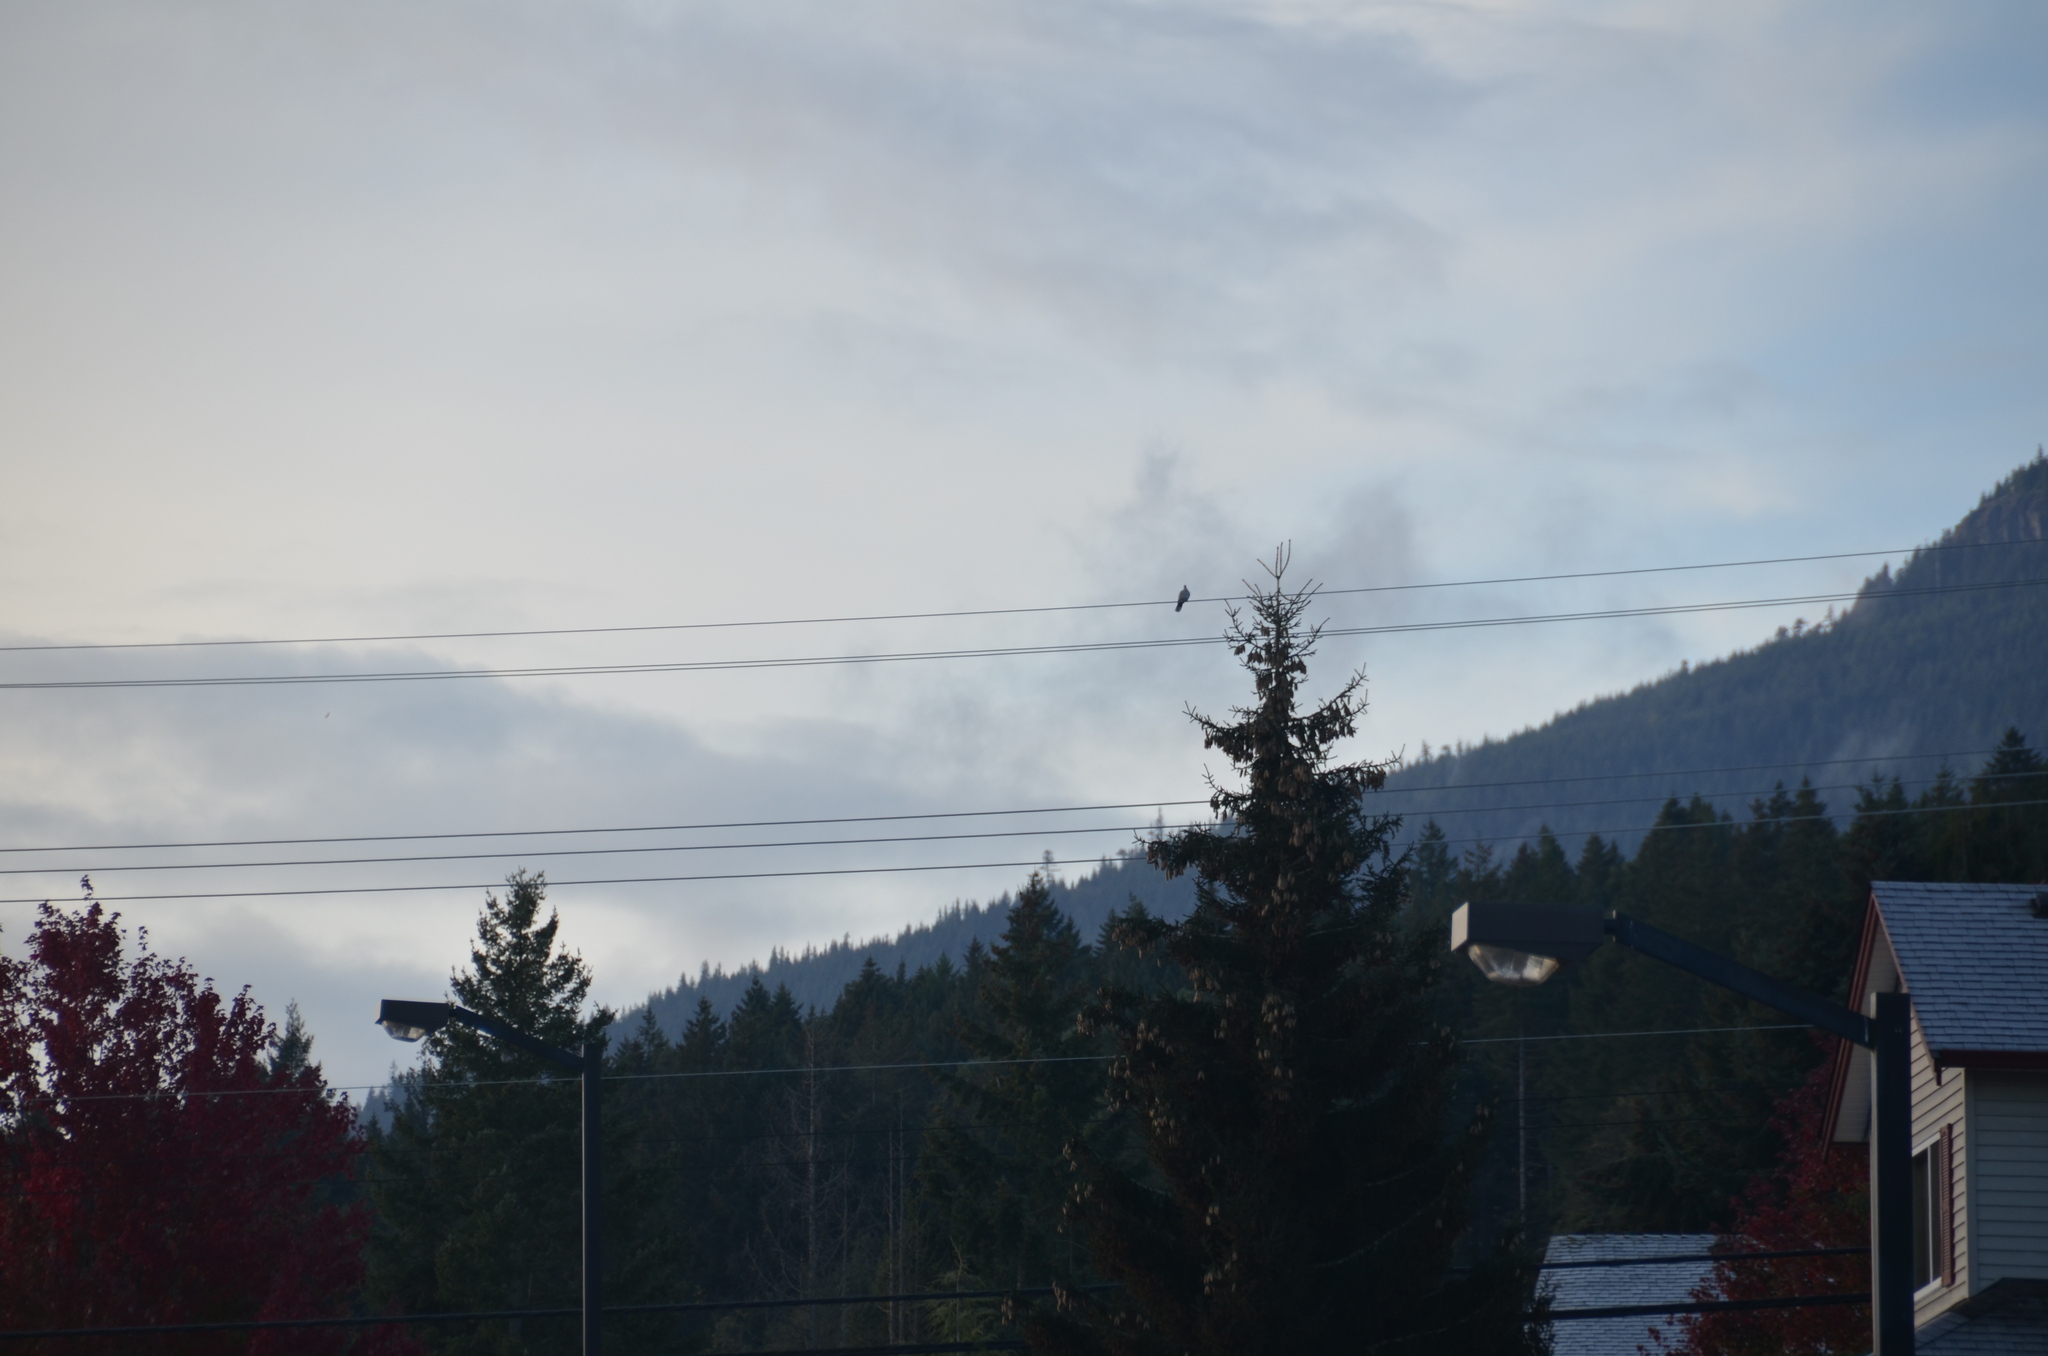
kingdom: Animalia
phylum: Chordata
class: Aves
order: Columbiformes
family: Columbidae
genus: Streptopelia
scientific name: Streptopelia decaocto
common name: Eurasian collared dove
